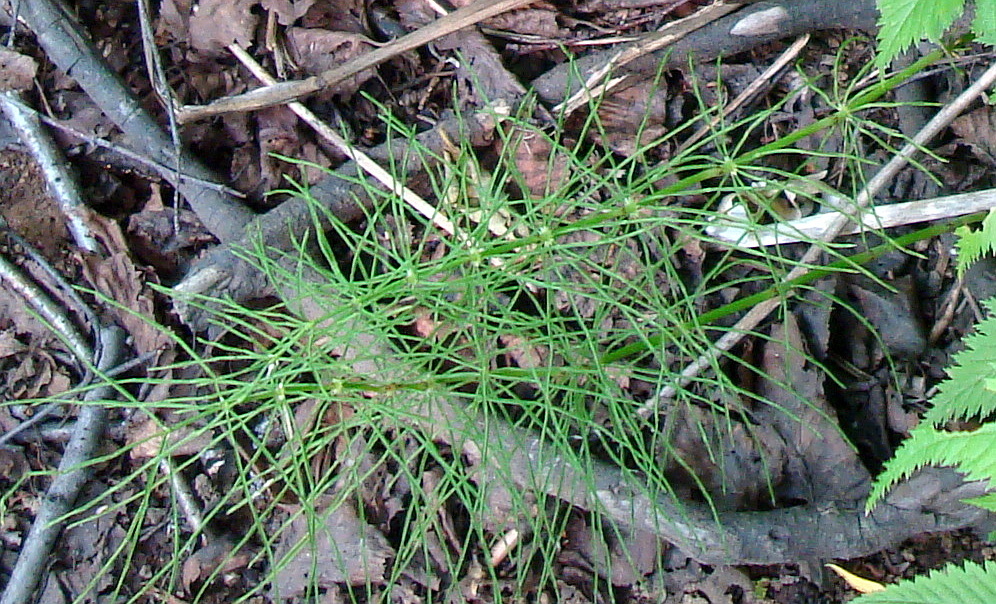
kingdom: Plantae
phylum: Tracheophyta
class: Polypodiopsida
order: Equisetales
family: Equisetaceae
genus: Equisetum
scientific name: Equisetum pratense
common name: Meadow horsetail
